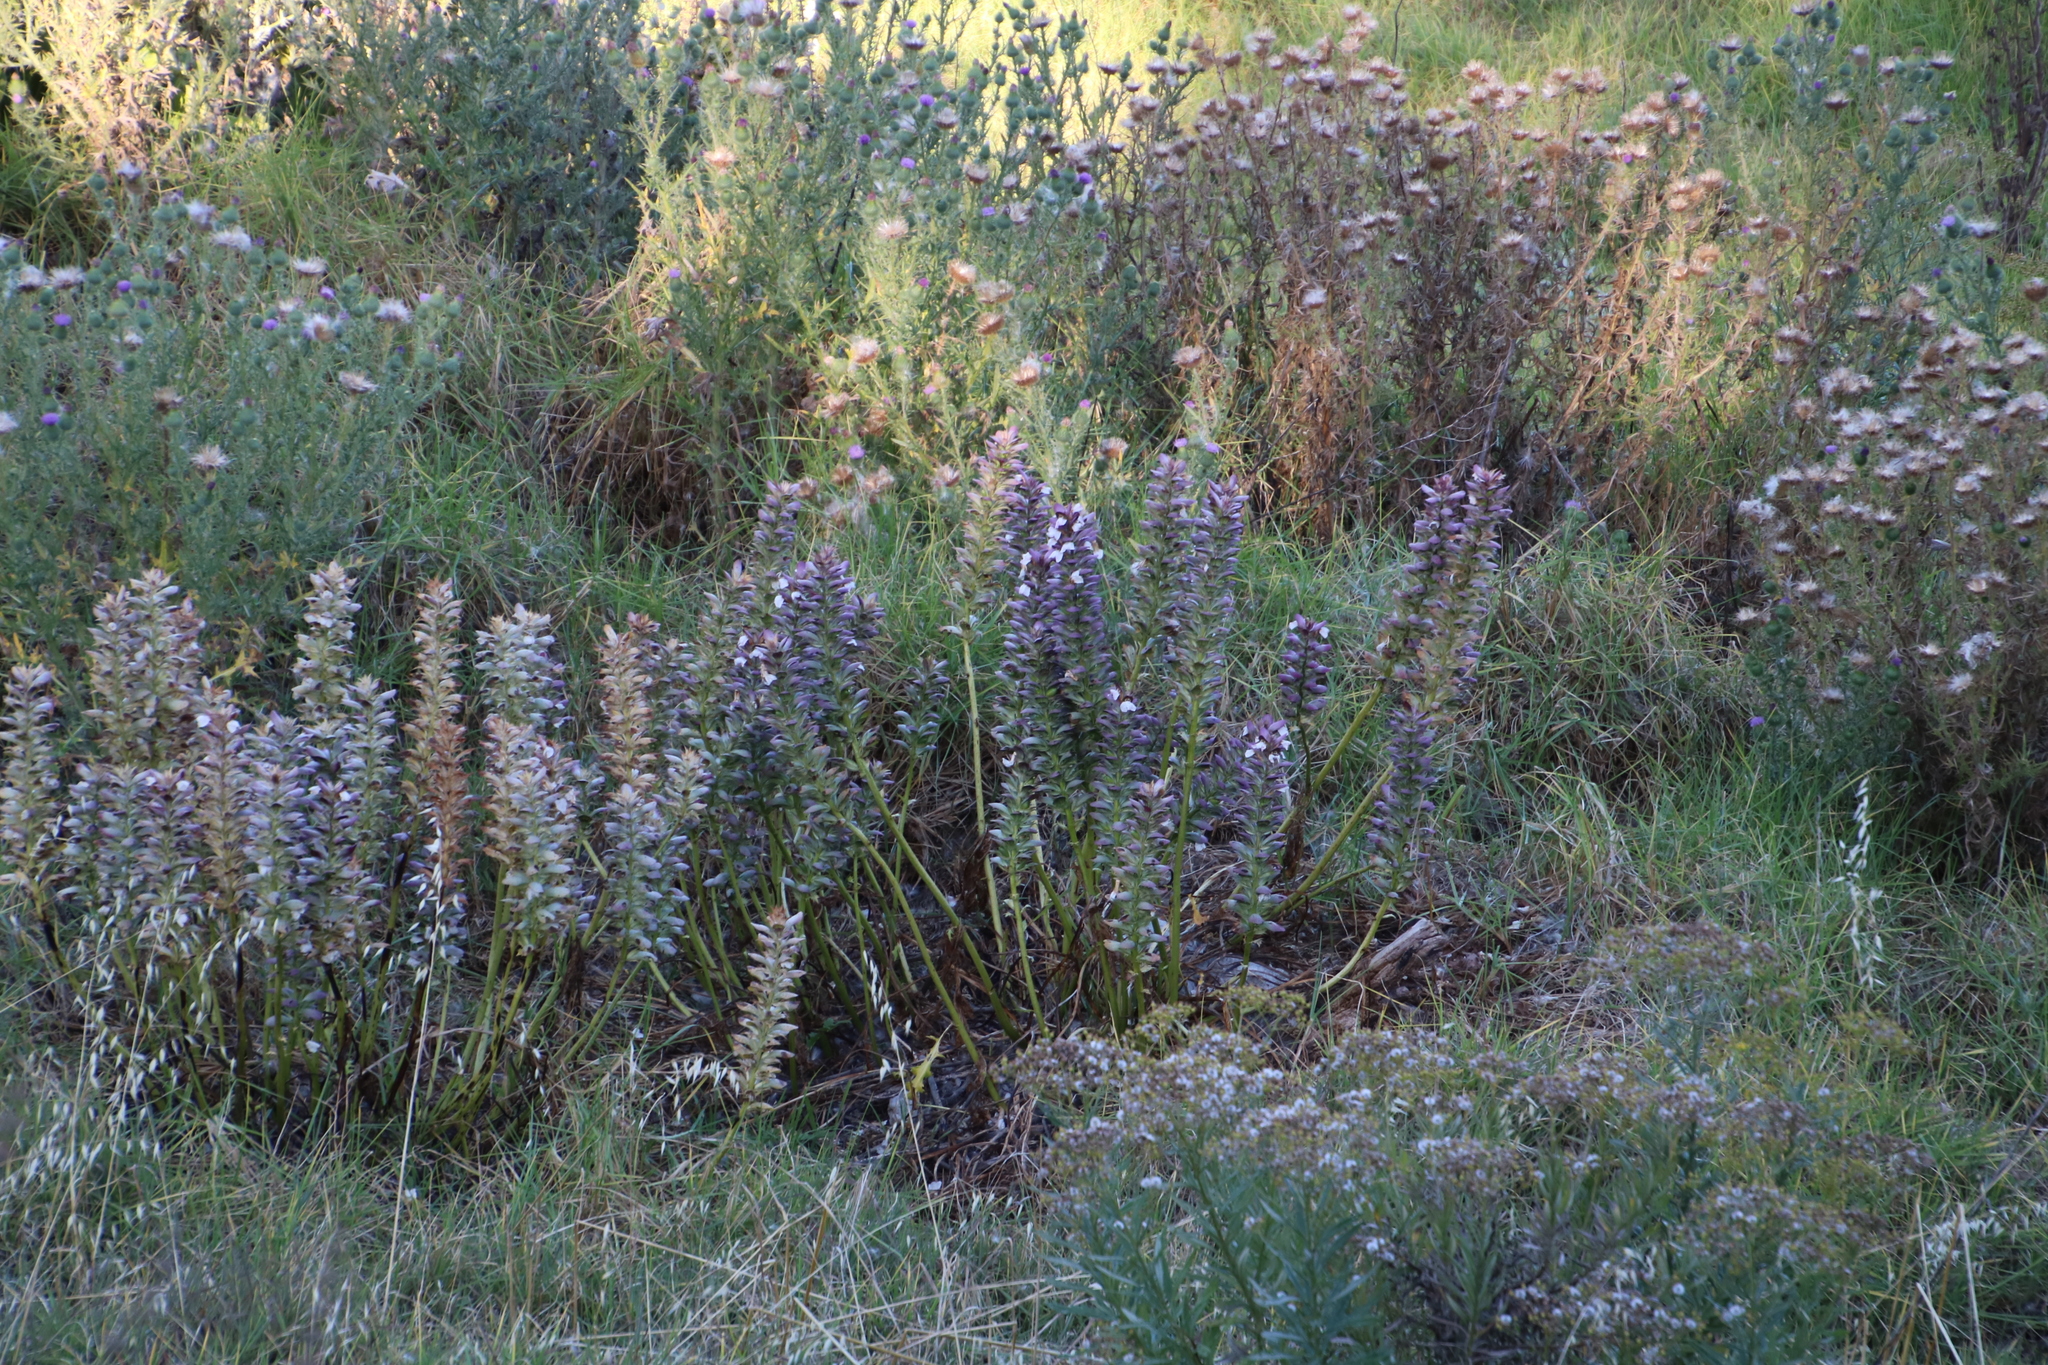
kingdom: Plantae
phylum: Tracheophyta
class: Magnoliopsida
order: Lamiales
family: Acanthaceae
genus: Acanthus
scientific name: Acanthus mollis
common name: Bear's-breech
